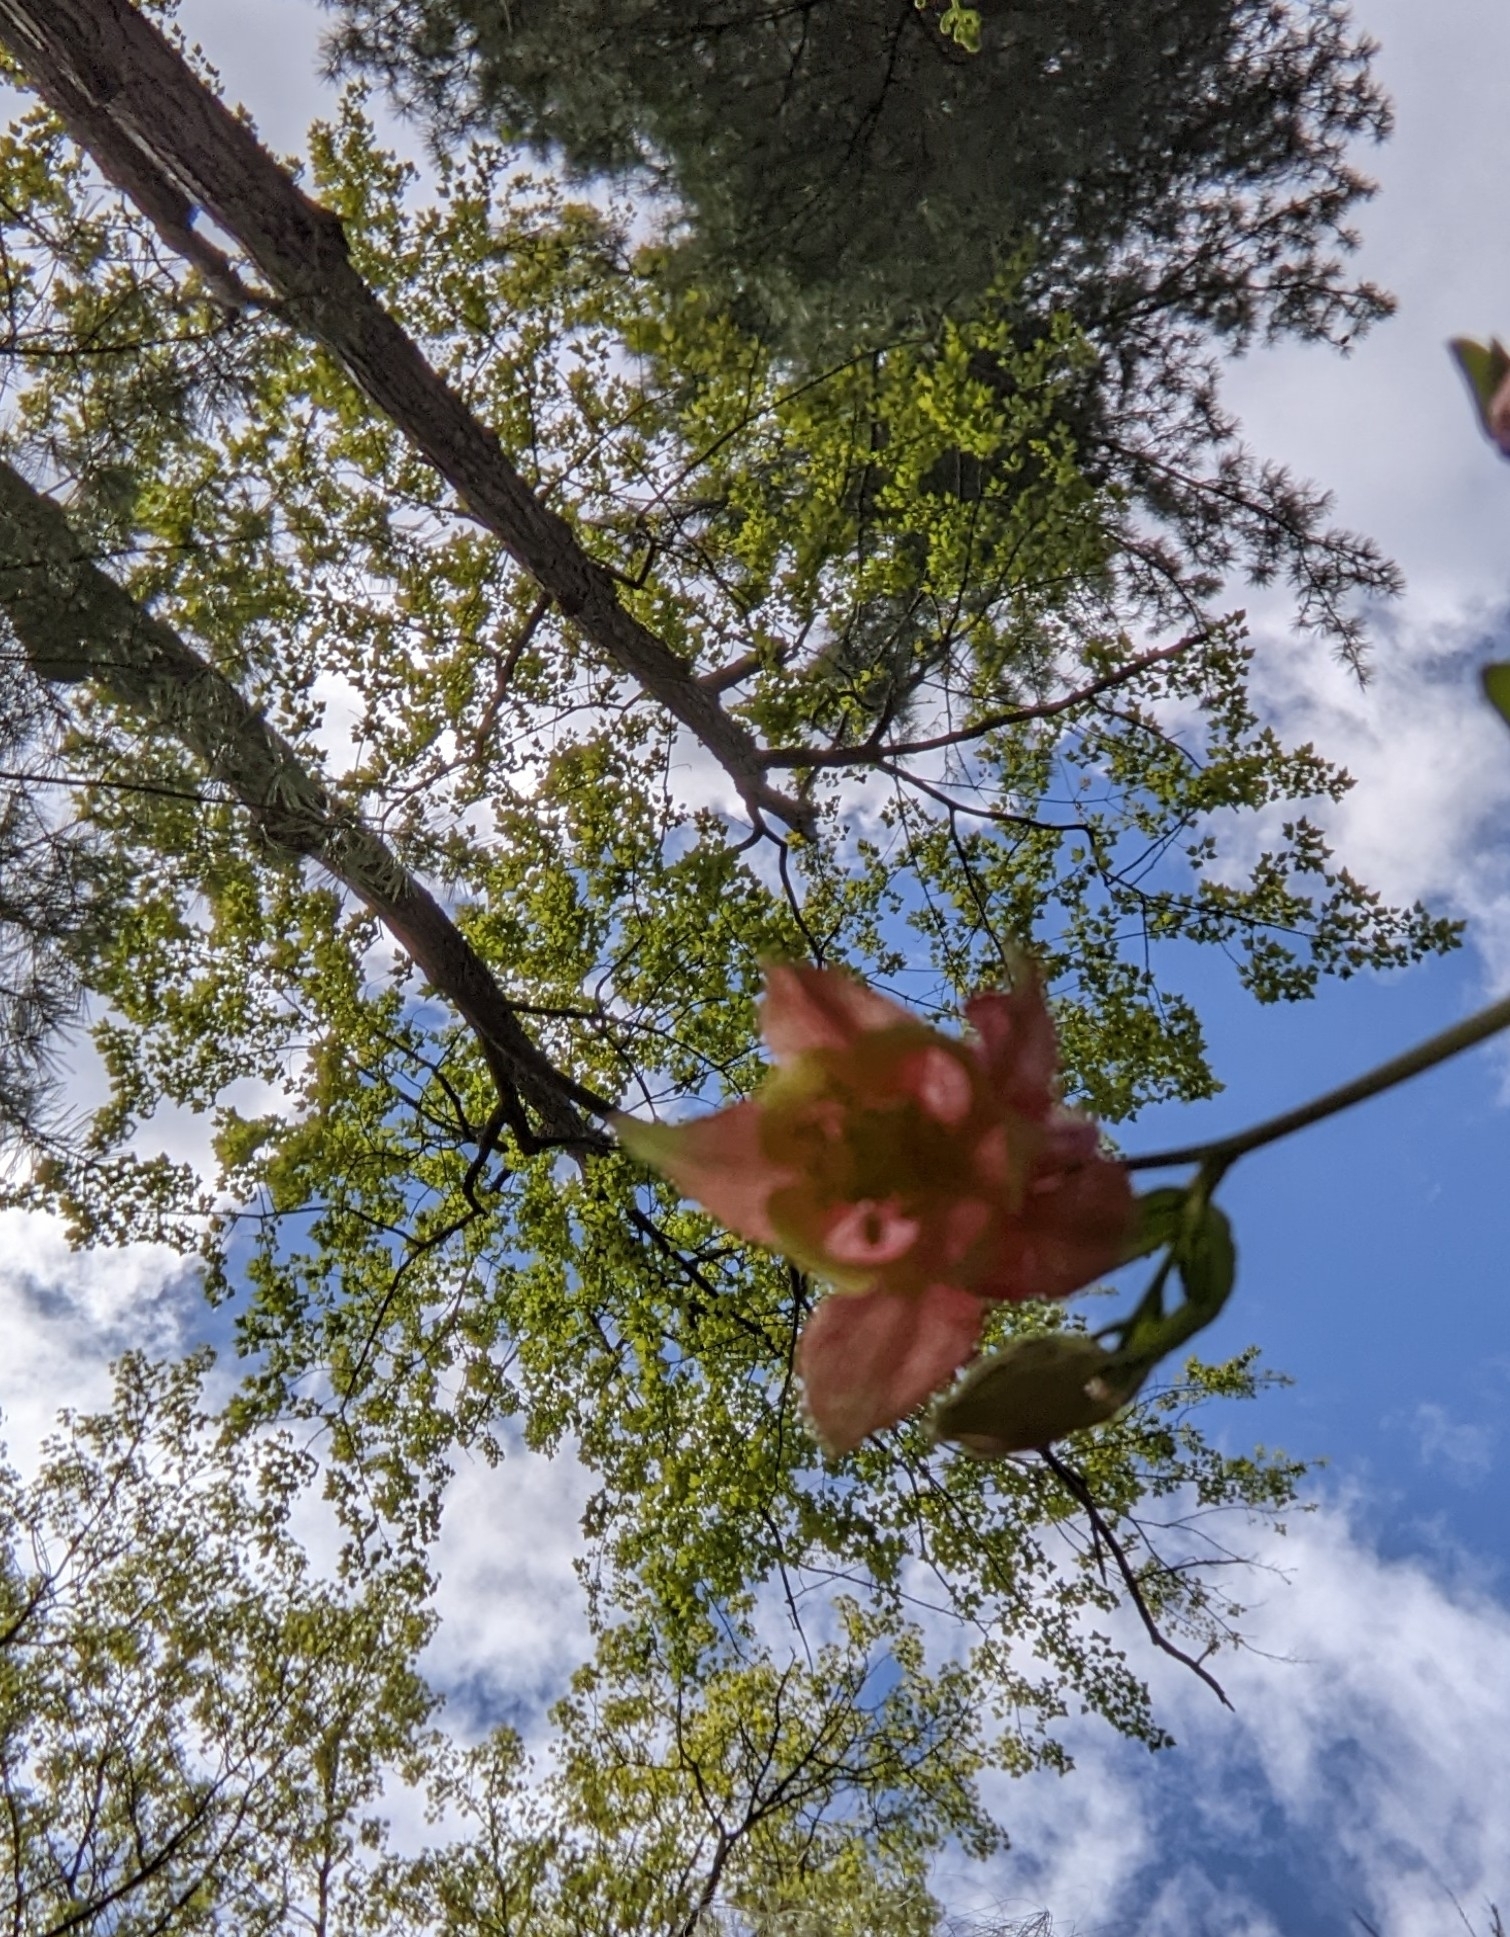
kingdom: Plantae
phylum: Tracheophyta
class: Magnoliopsida
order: Ranunculales
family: Ranunculaceae
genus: Aquilegia
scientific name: Aquilegia canadensis
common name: American columbine
